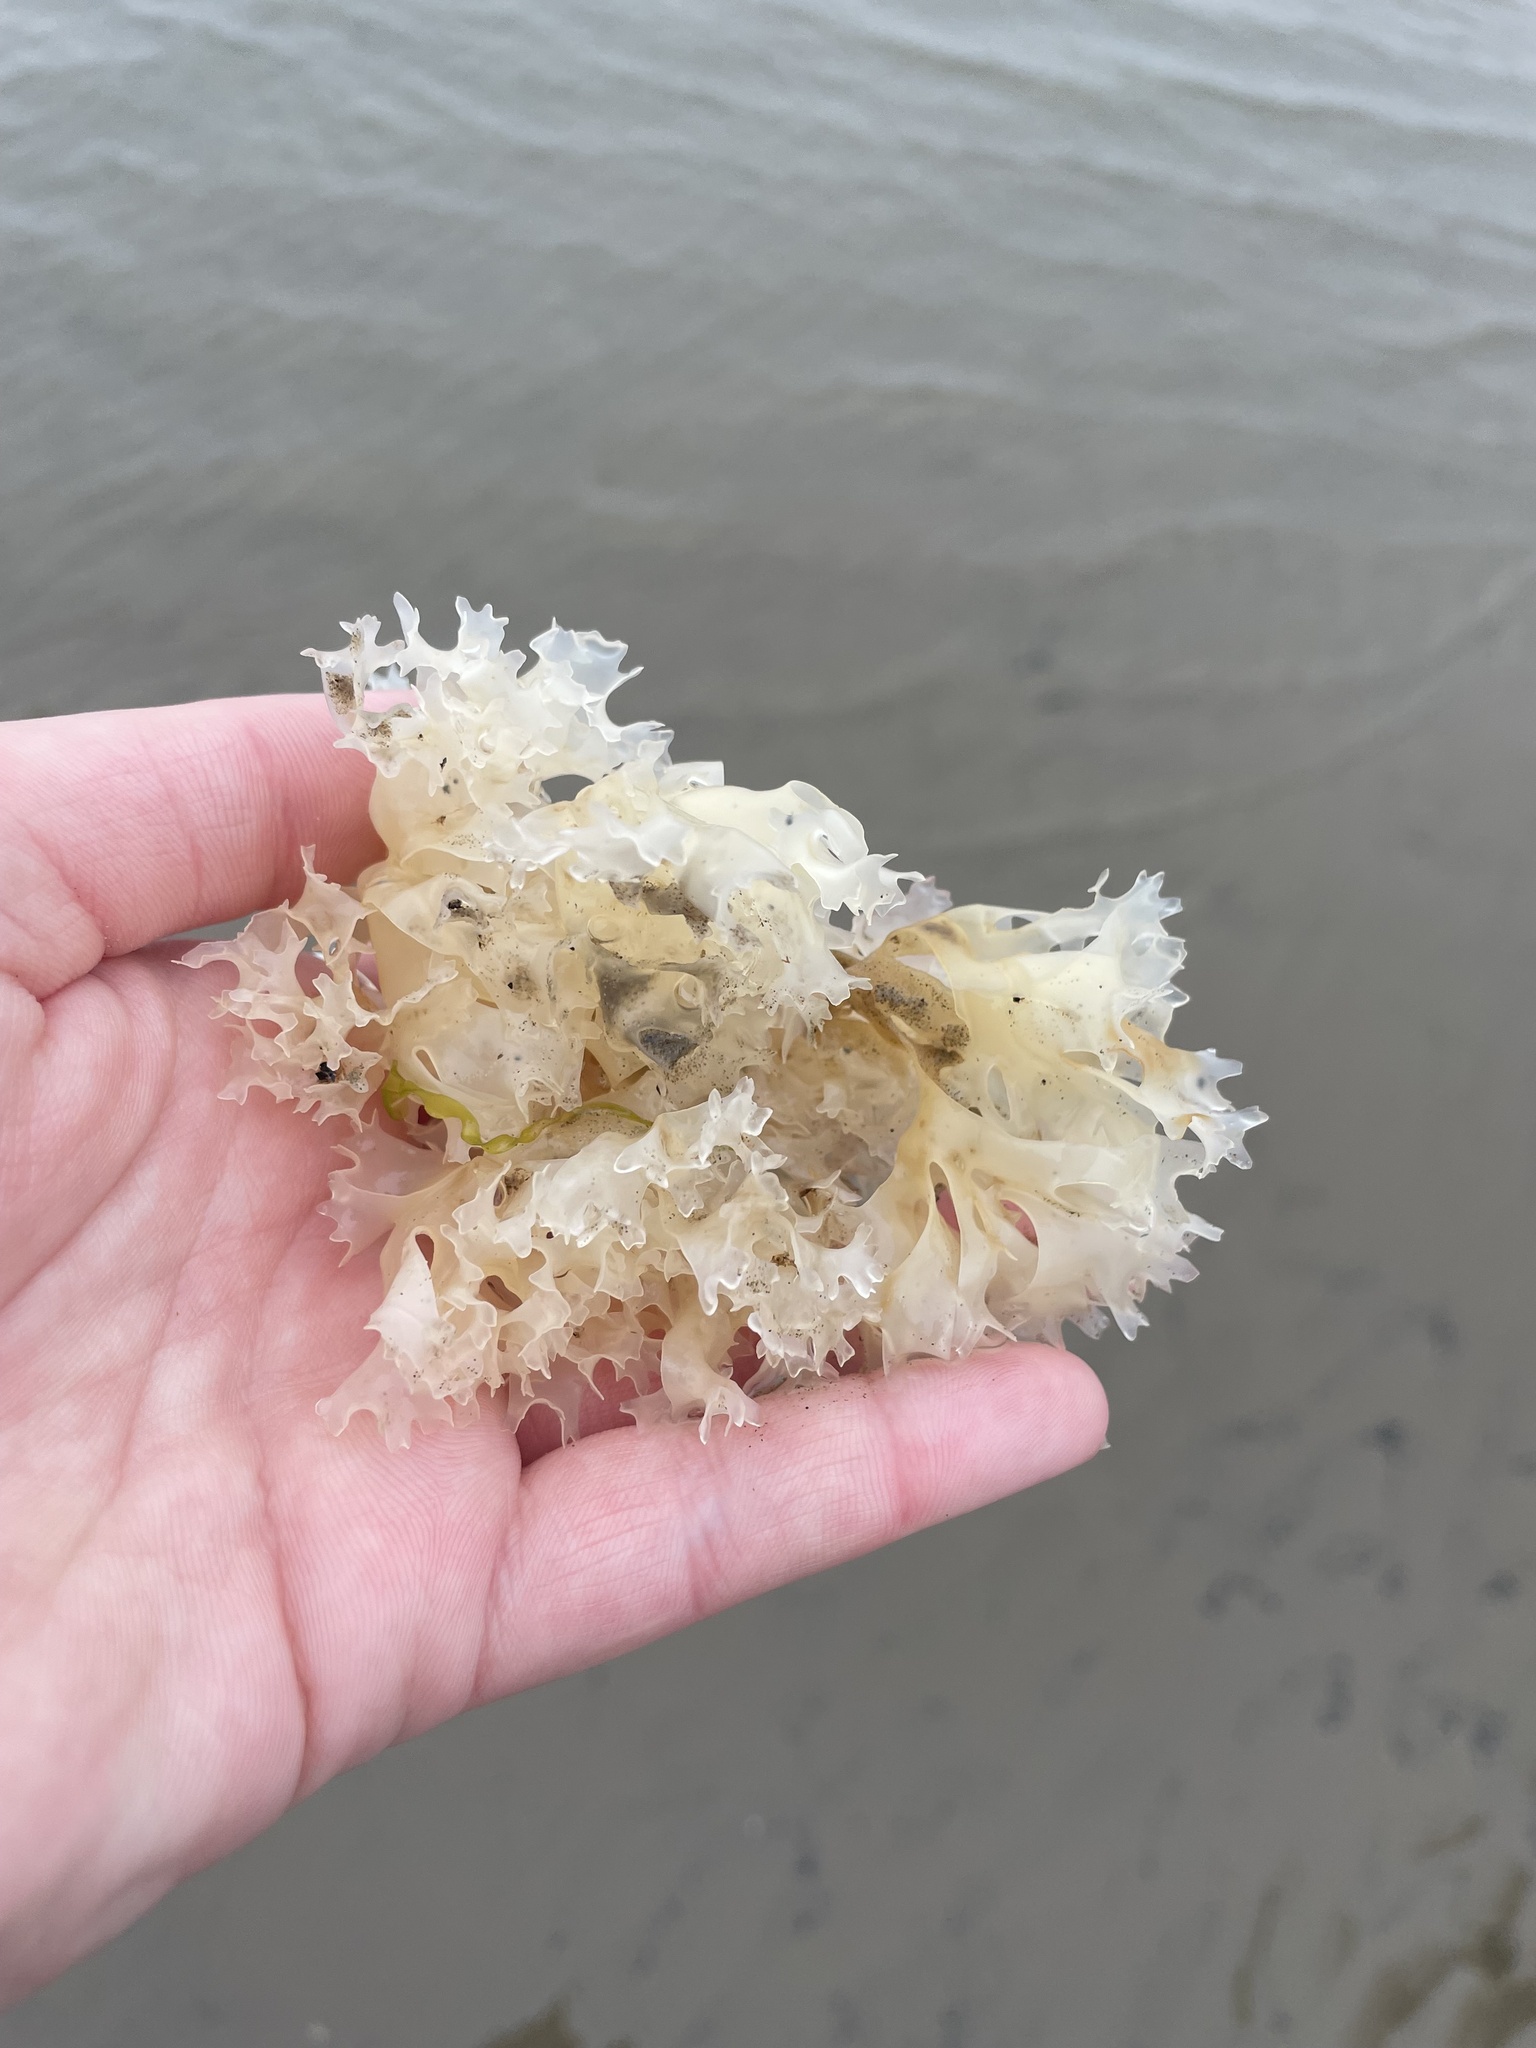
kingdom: Plantae
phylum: Rhodophyta
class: Florideophyceae
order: Gigartinales
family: Gigartinaceae
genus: Chondrus
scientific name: Chondrus crispus
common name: Carrageen
